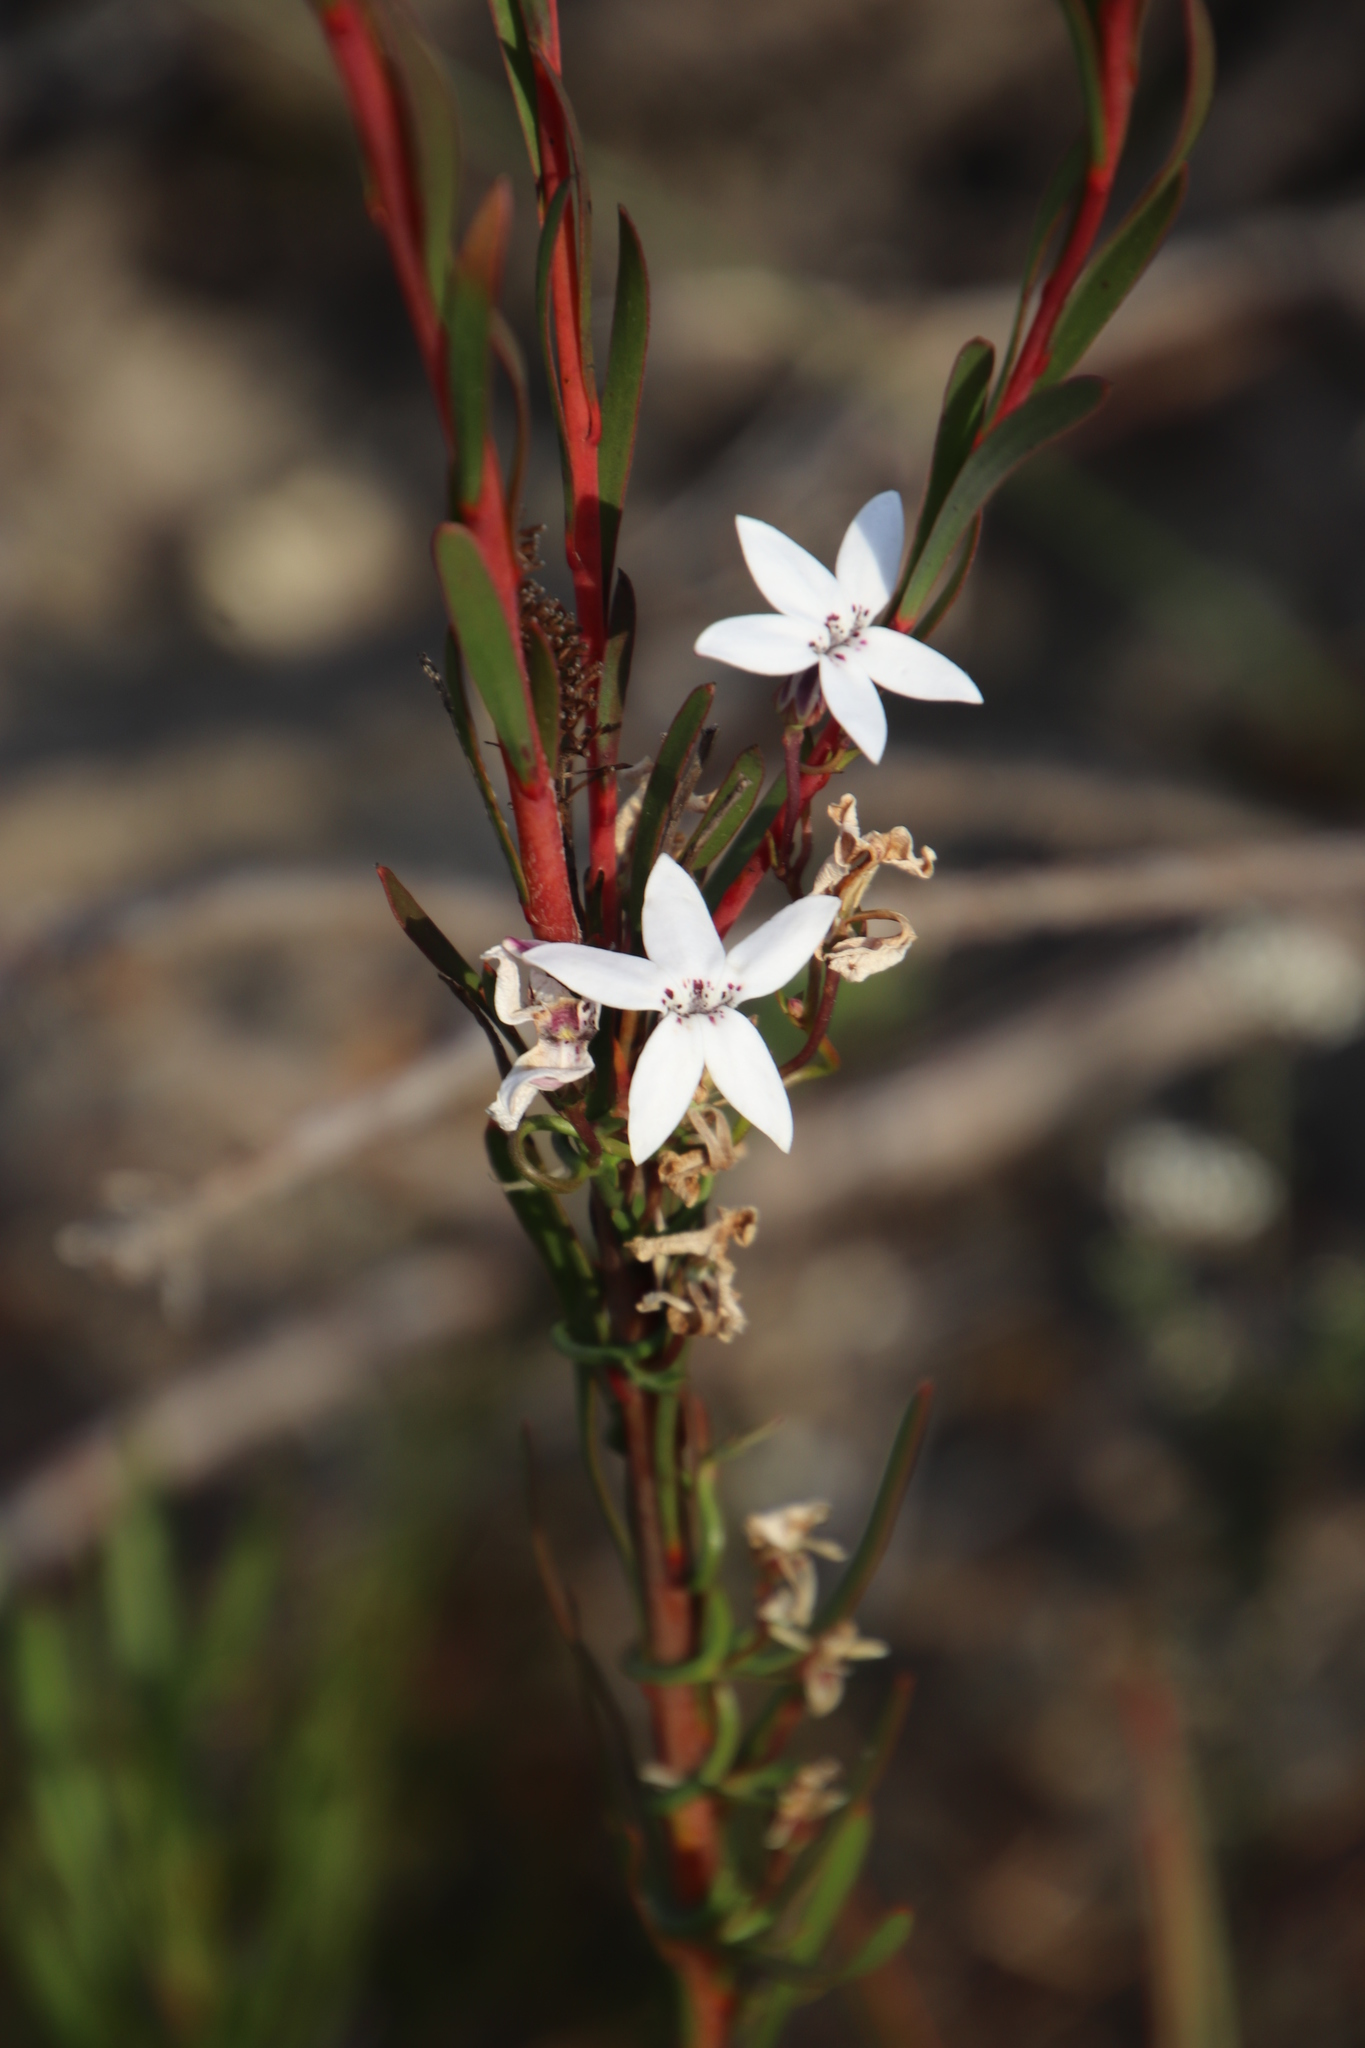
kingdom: Plantae
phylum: Tracheophyta
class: Magnoliopsida
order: Asterales
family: Campanulaceae
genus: Cyphia
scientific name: Cyphia volubilis
